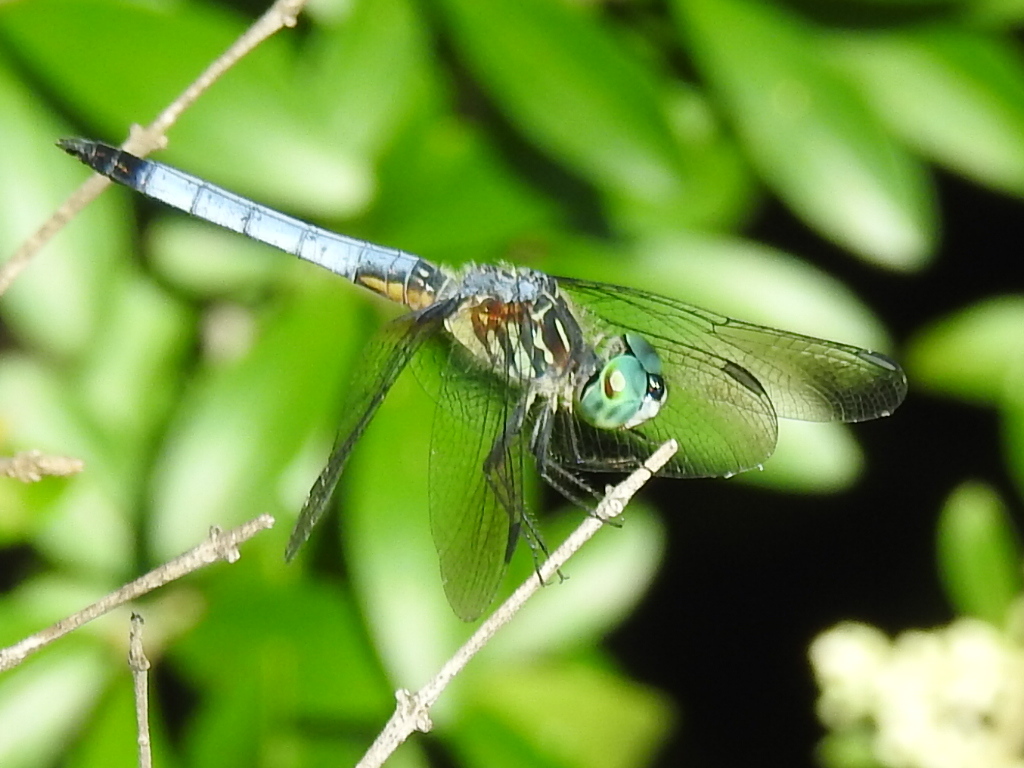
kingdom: Animalia
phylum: Arthropoda
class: Insecta
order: Odonata
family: Libellulidae
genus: Pachydiplax
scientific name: Pachydiplax longipennis
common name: Blue dasher
